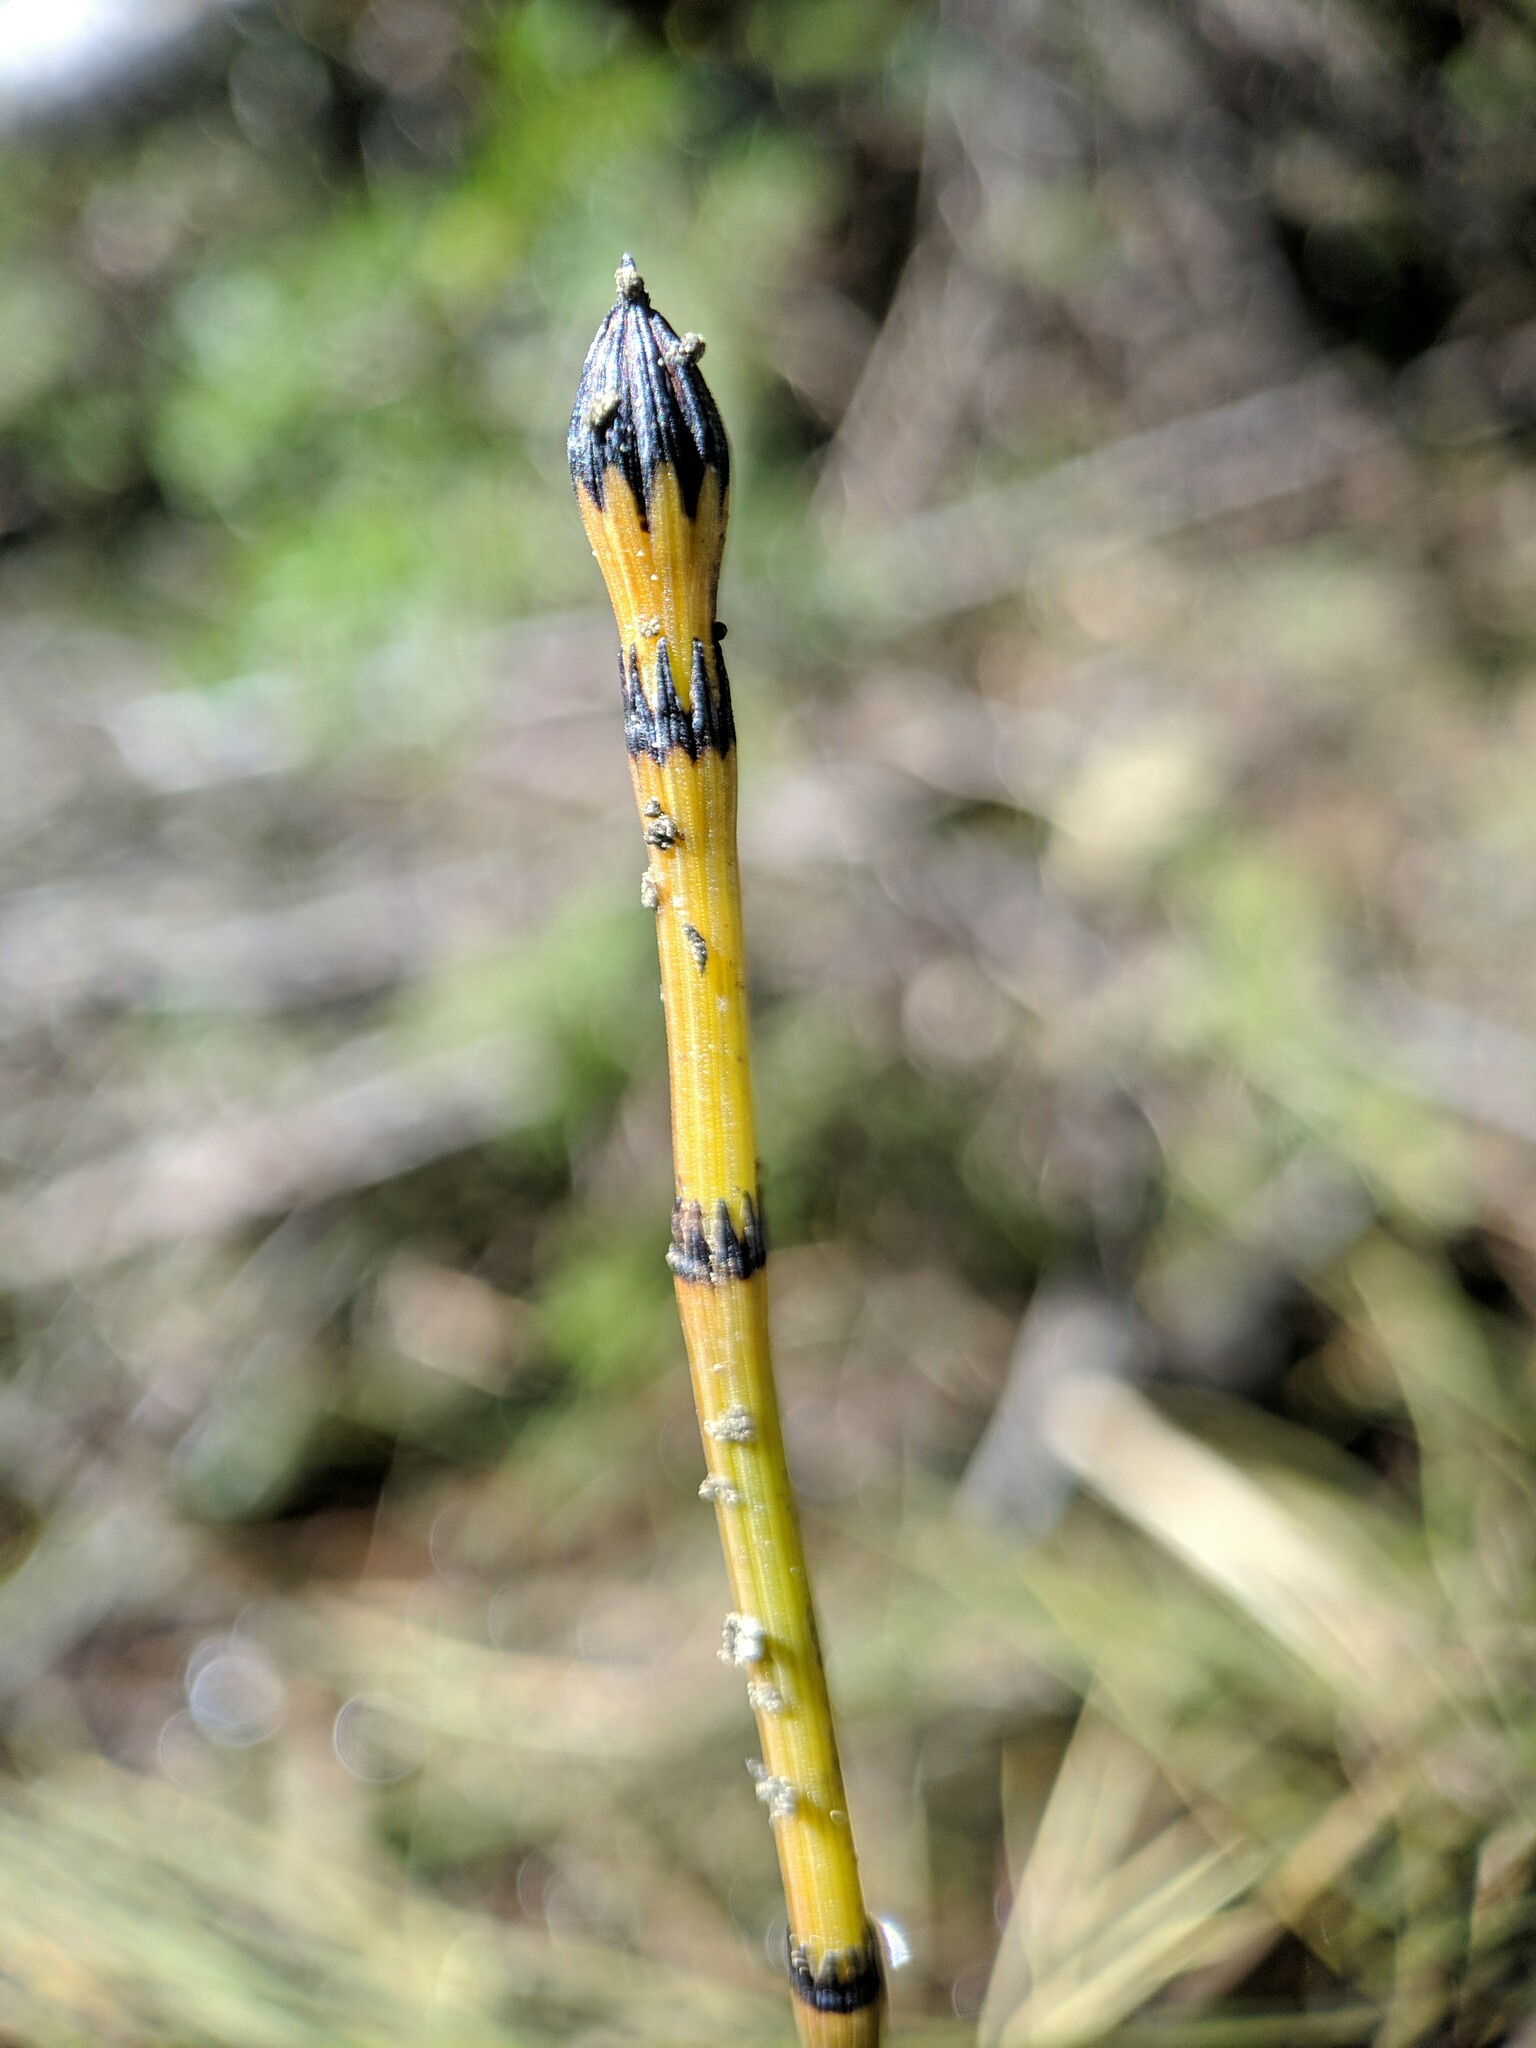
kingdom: Plantae
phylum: Tracheophyta
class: Polypodiopsida
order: Equisetales
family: Equisetaceae
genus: Equisetum
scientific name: Equisetum variegatum
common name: Variegated horsetail
